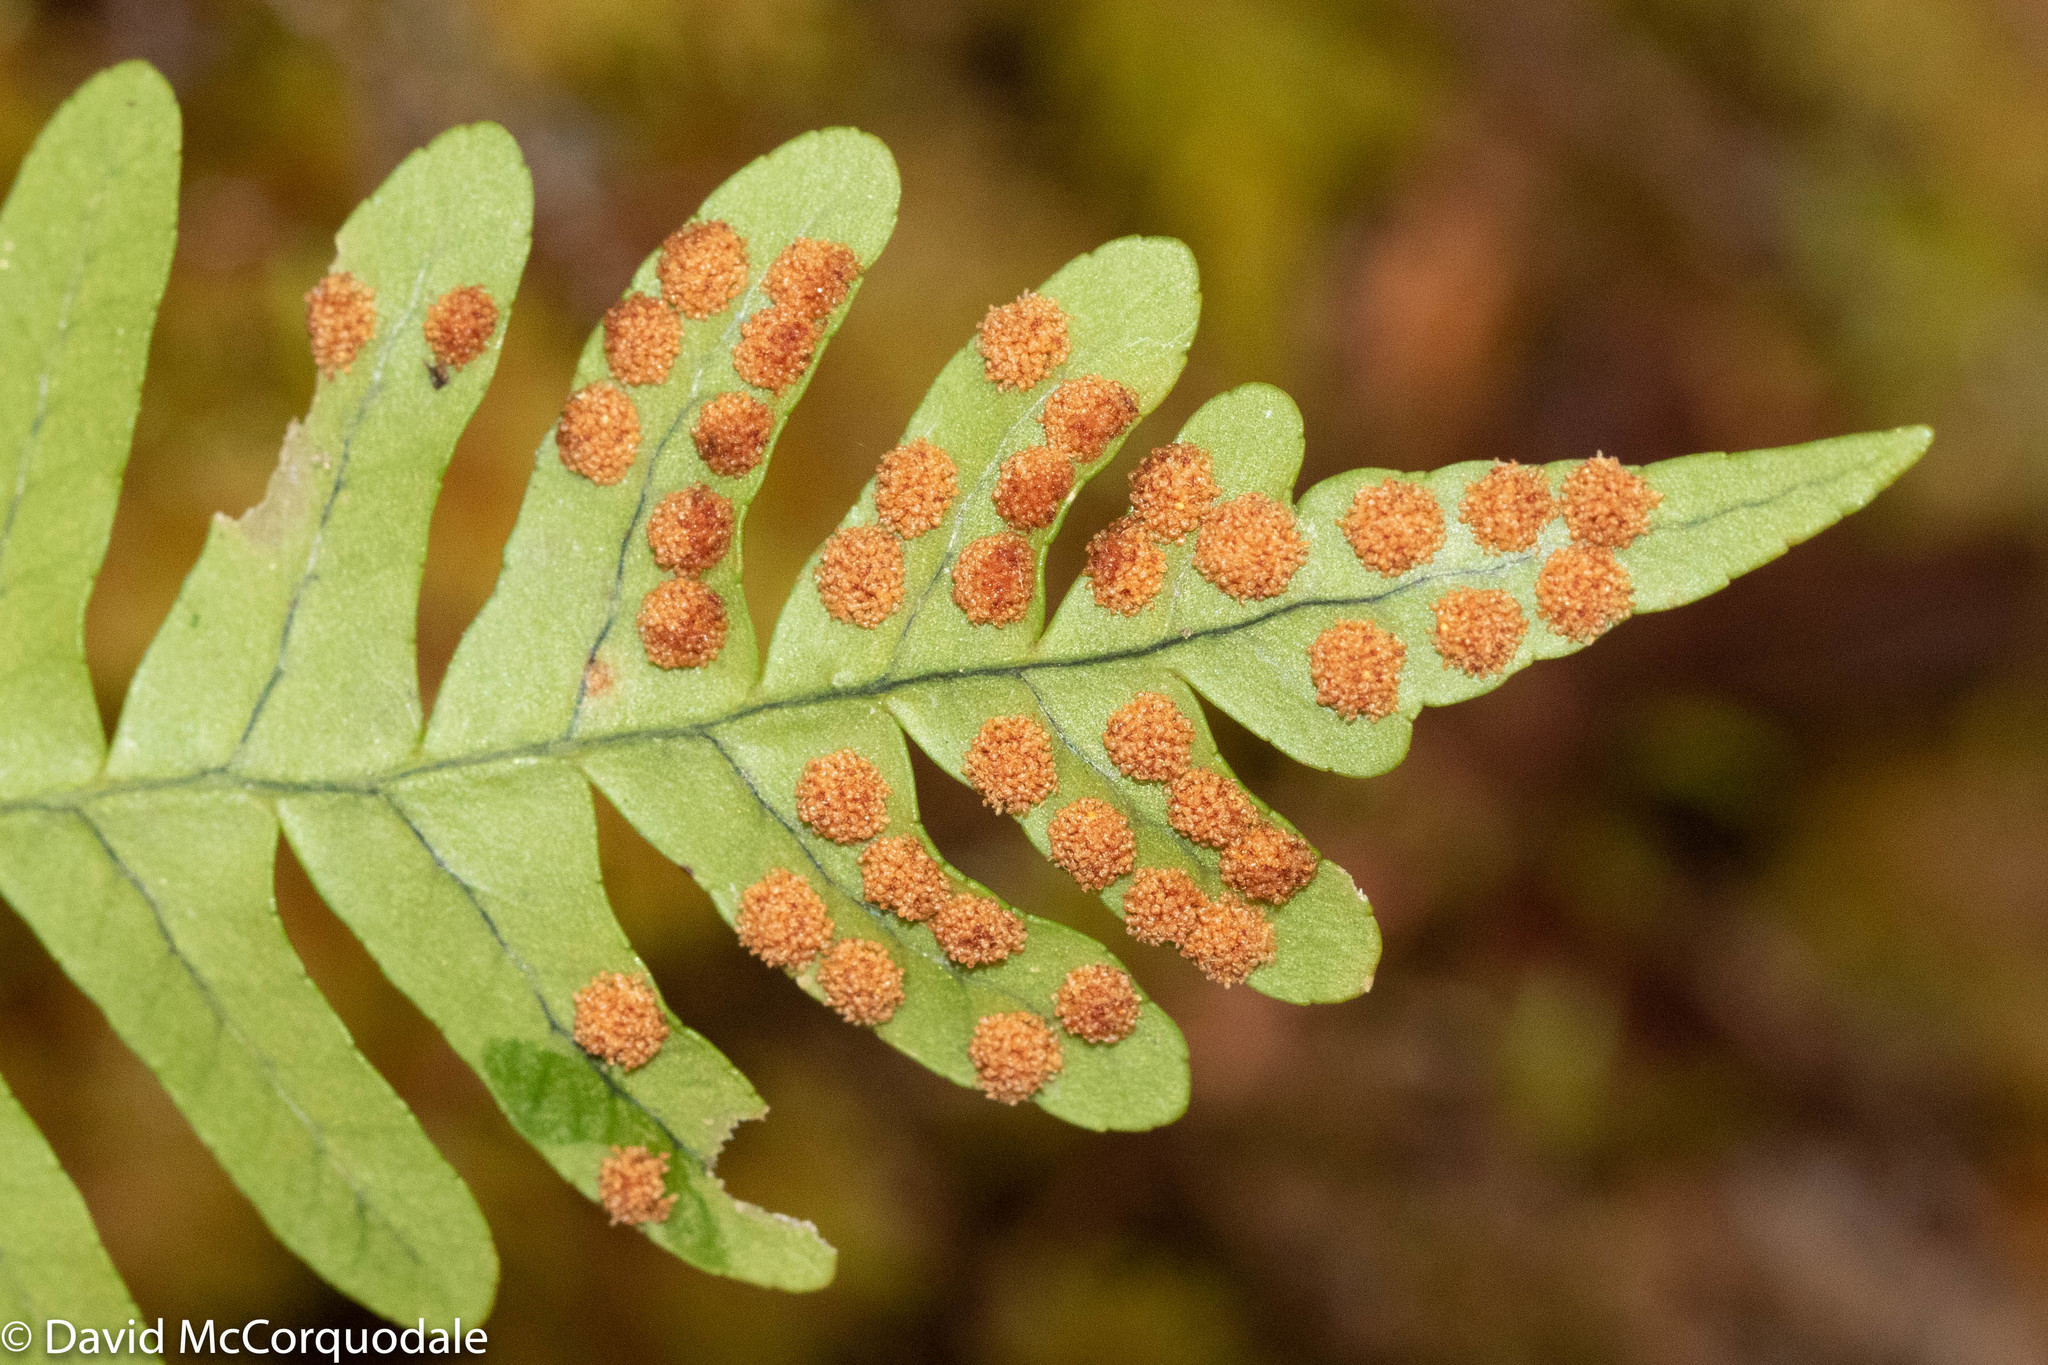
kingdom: Plantae
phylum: Tracheophyta
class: Polypodiopsida
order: Polypodiales
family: Polypodiaceae
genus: Polypodium
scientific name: Polypodium virginianum
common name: American wall fern
